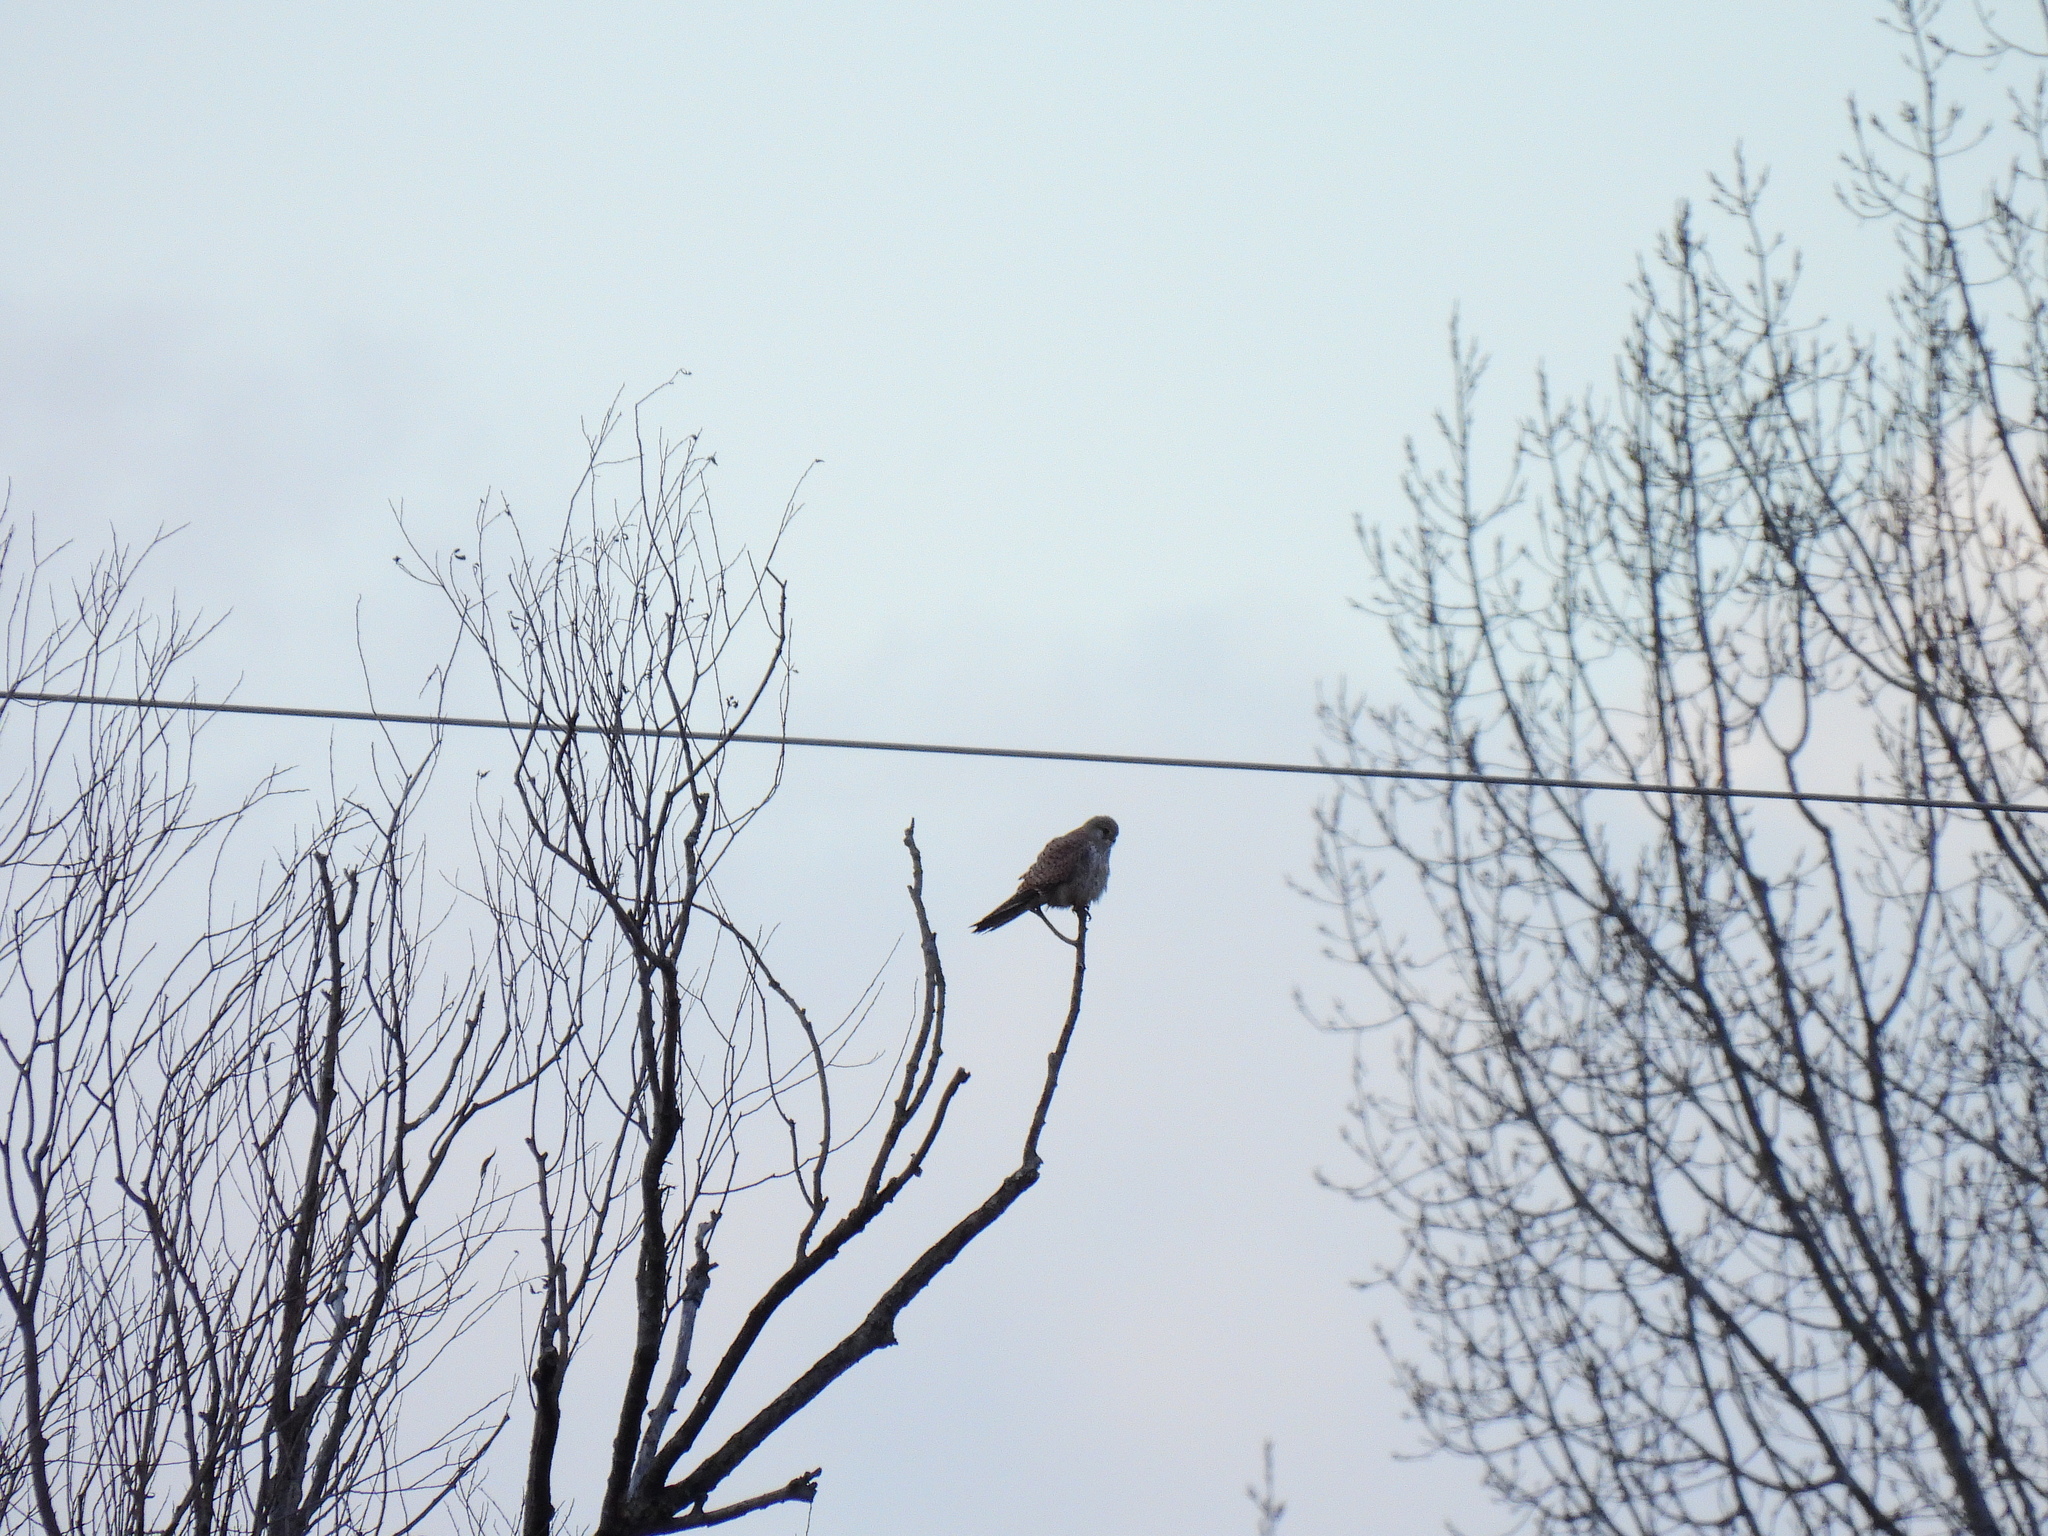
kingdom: Animalia
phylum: Chordata
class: Aves
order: Falconiformes
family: Falconidae
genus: Falco
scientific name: Falco tinnunculus
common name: Common kestrel
